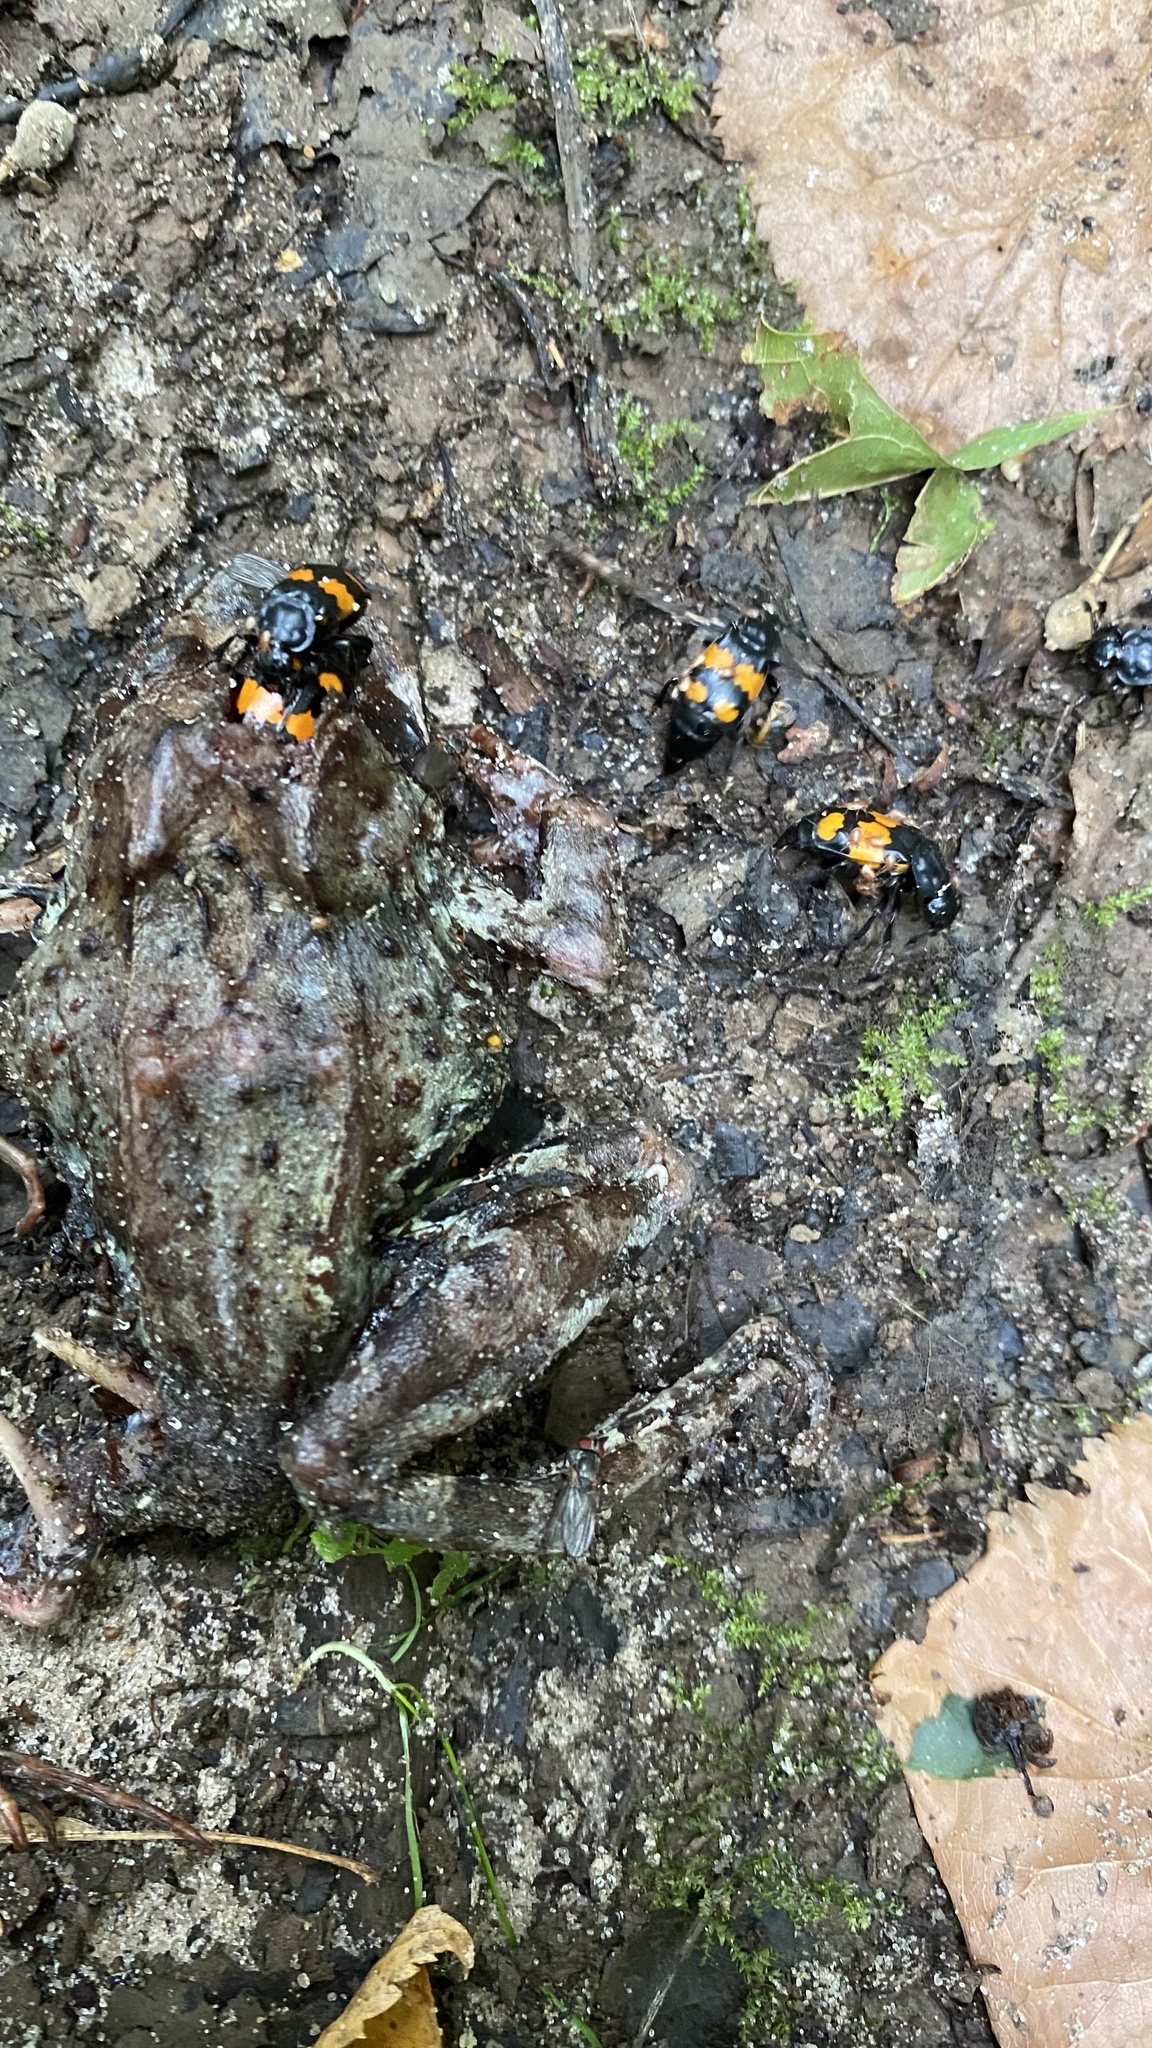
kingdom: Animalia
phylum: Arthropoda
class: Insecta
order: Coleoptera
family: Staphylinidae
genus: Nicrophorus
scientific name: Nicrophorus vespilloides
